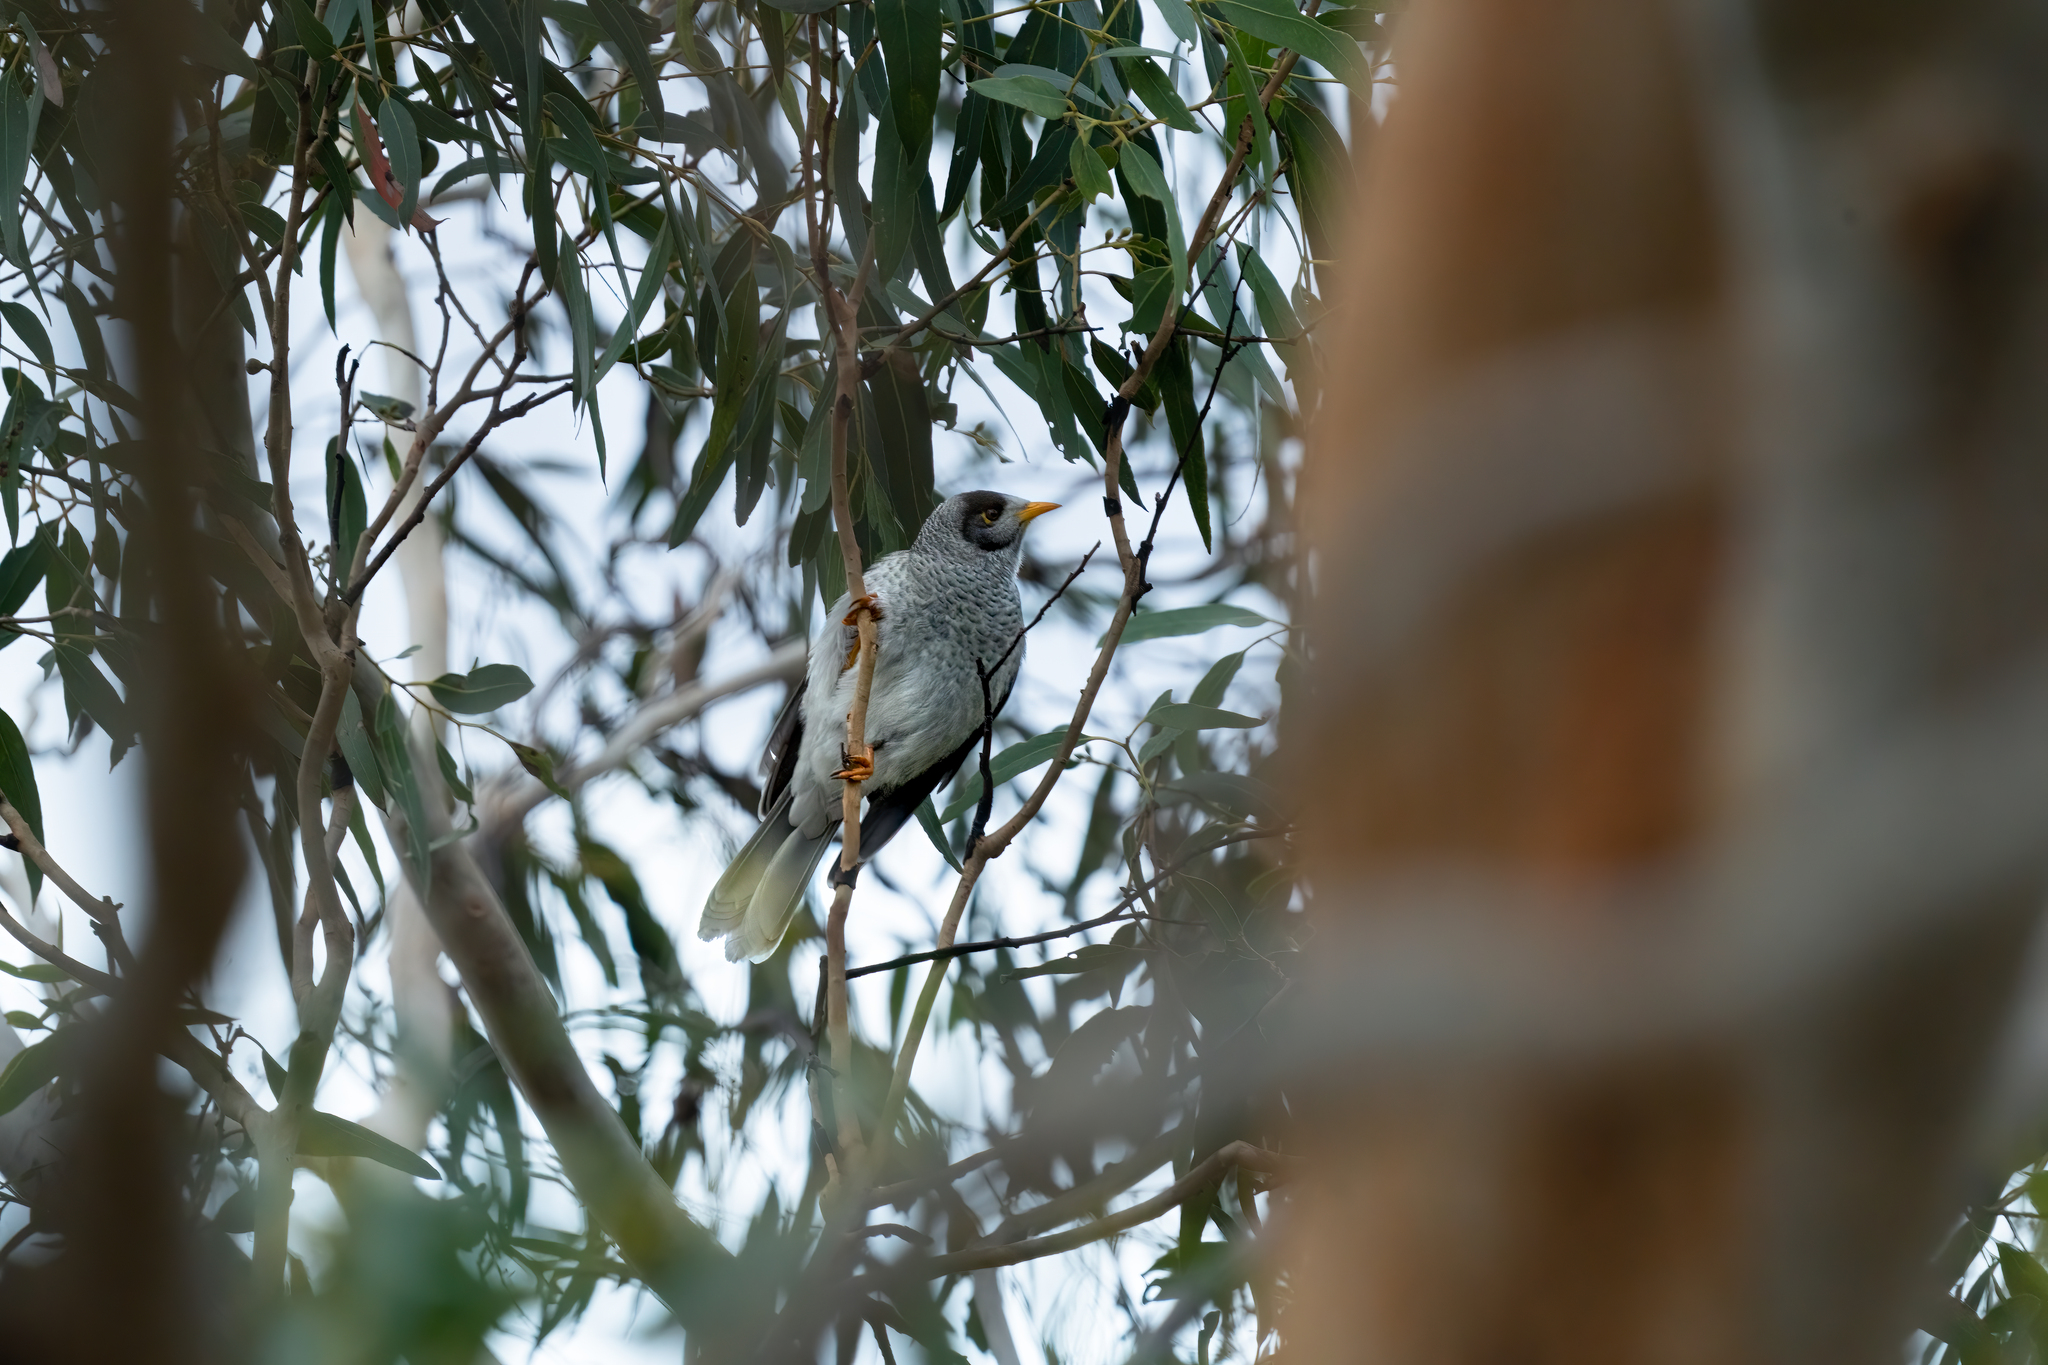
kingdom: Animalia
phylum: Chordata
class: Aves
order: Passeriformes
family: Meliphagidae
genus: Manorina
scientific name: Manorina melanocephala
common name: Noisy miner
